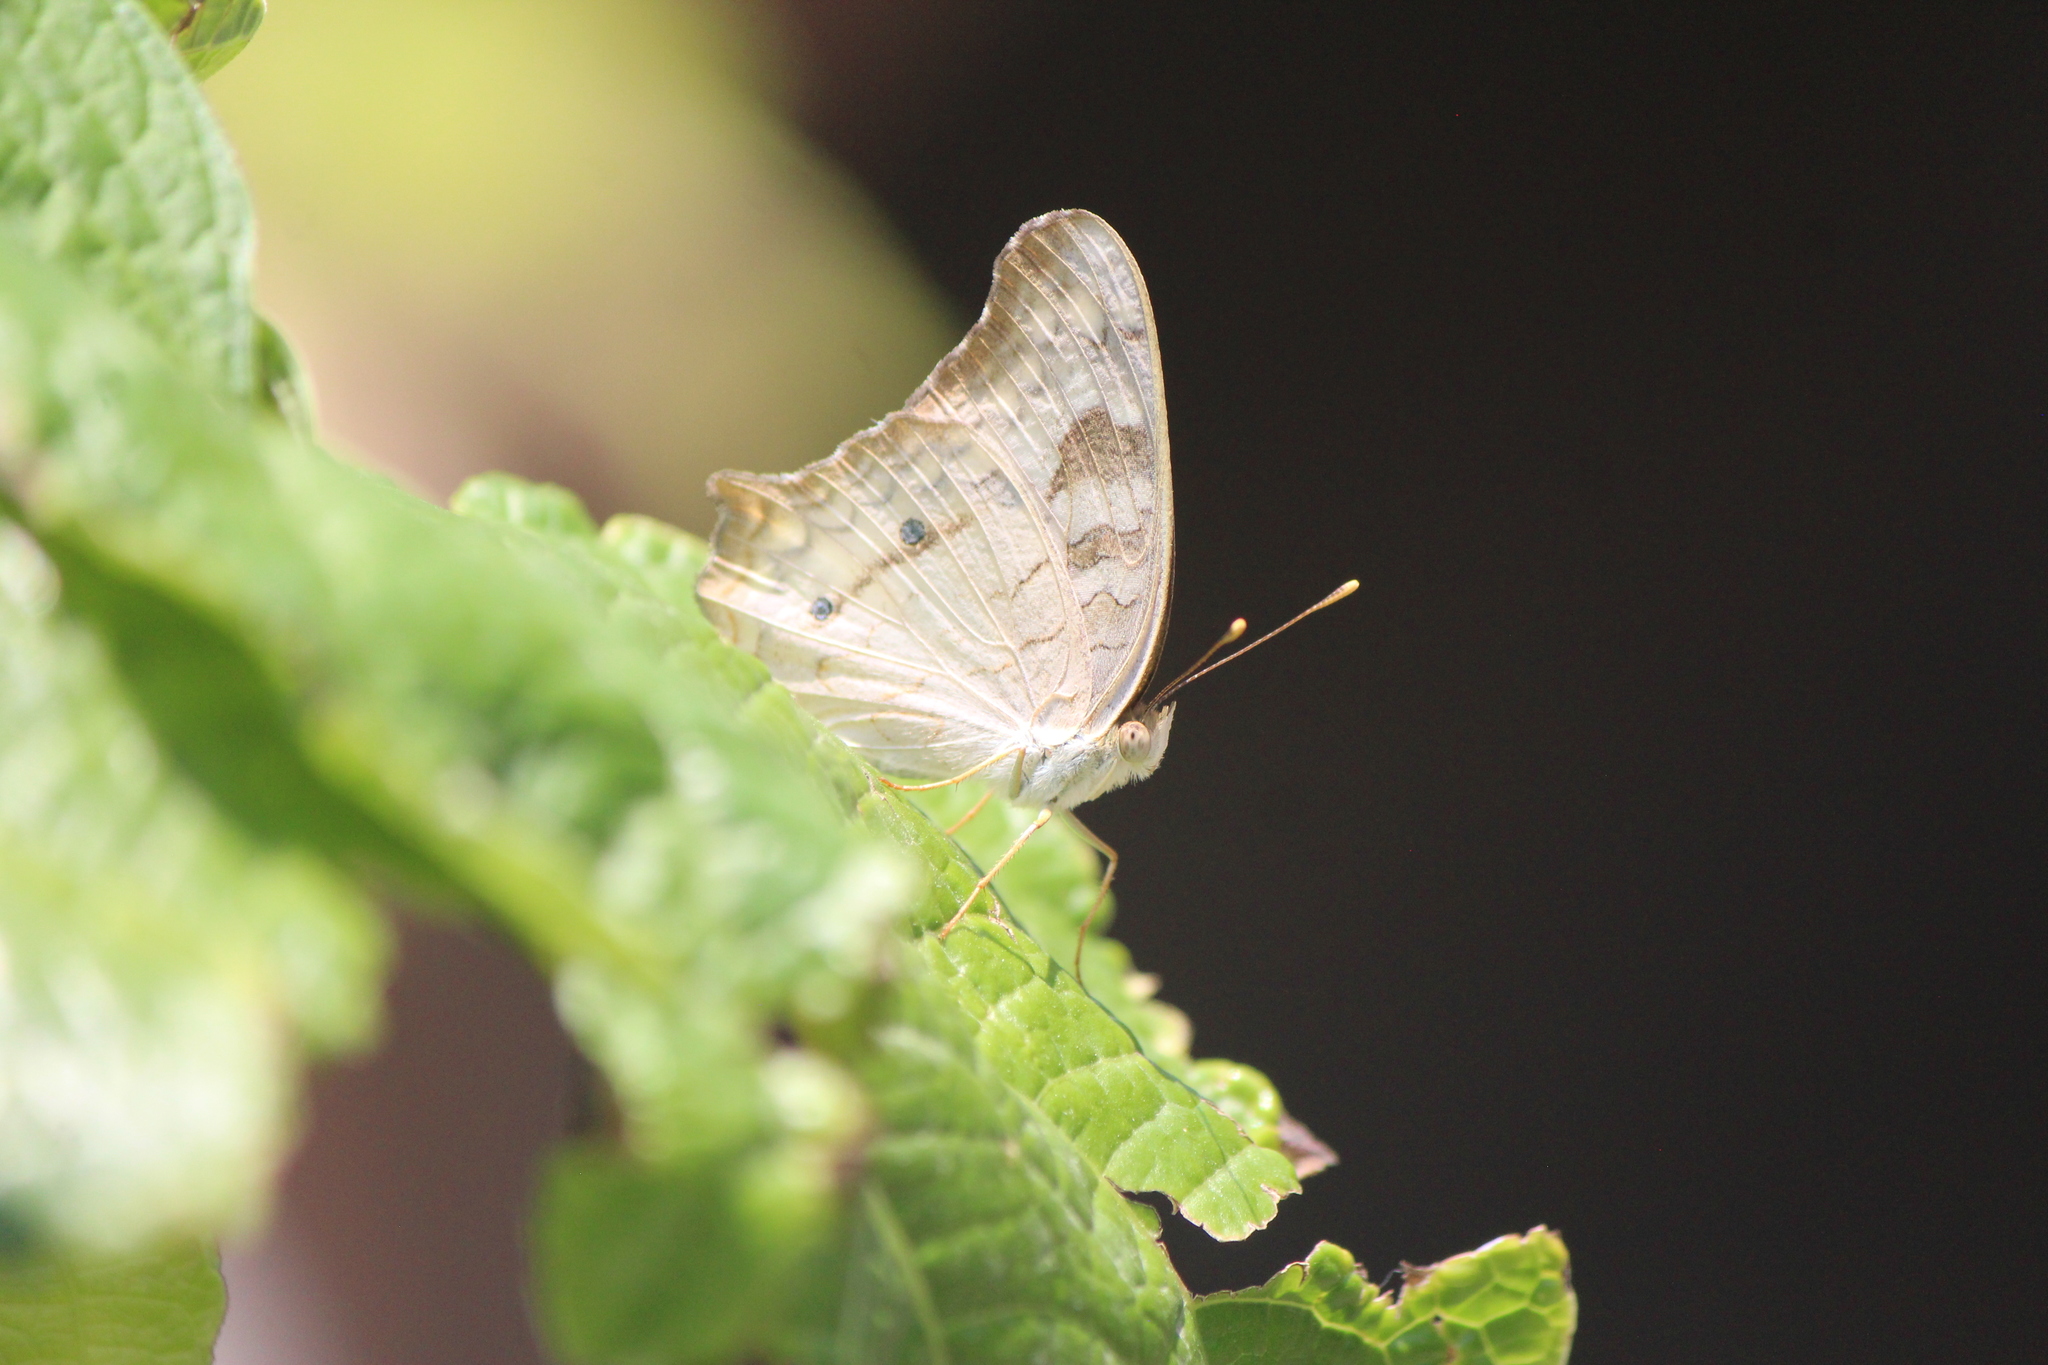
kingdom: Animalia
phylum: Arthropoda
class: Insecta
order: Lepidoptera
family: Nymphalidae
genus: Anartia
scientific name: Anartia jatrophae
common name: White peacock
